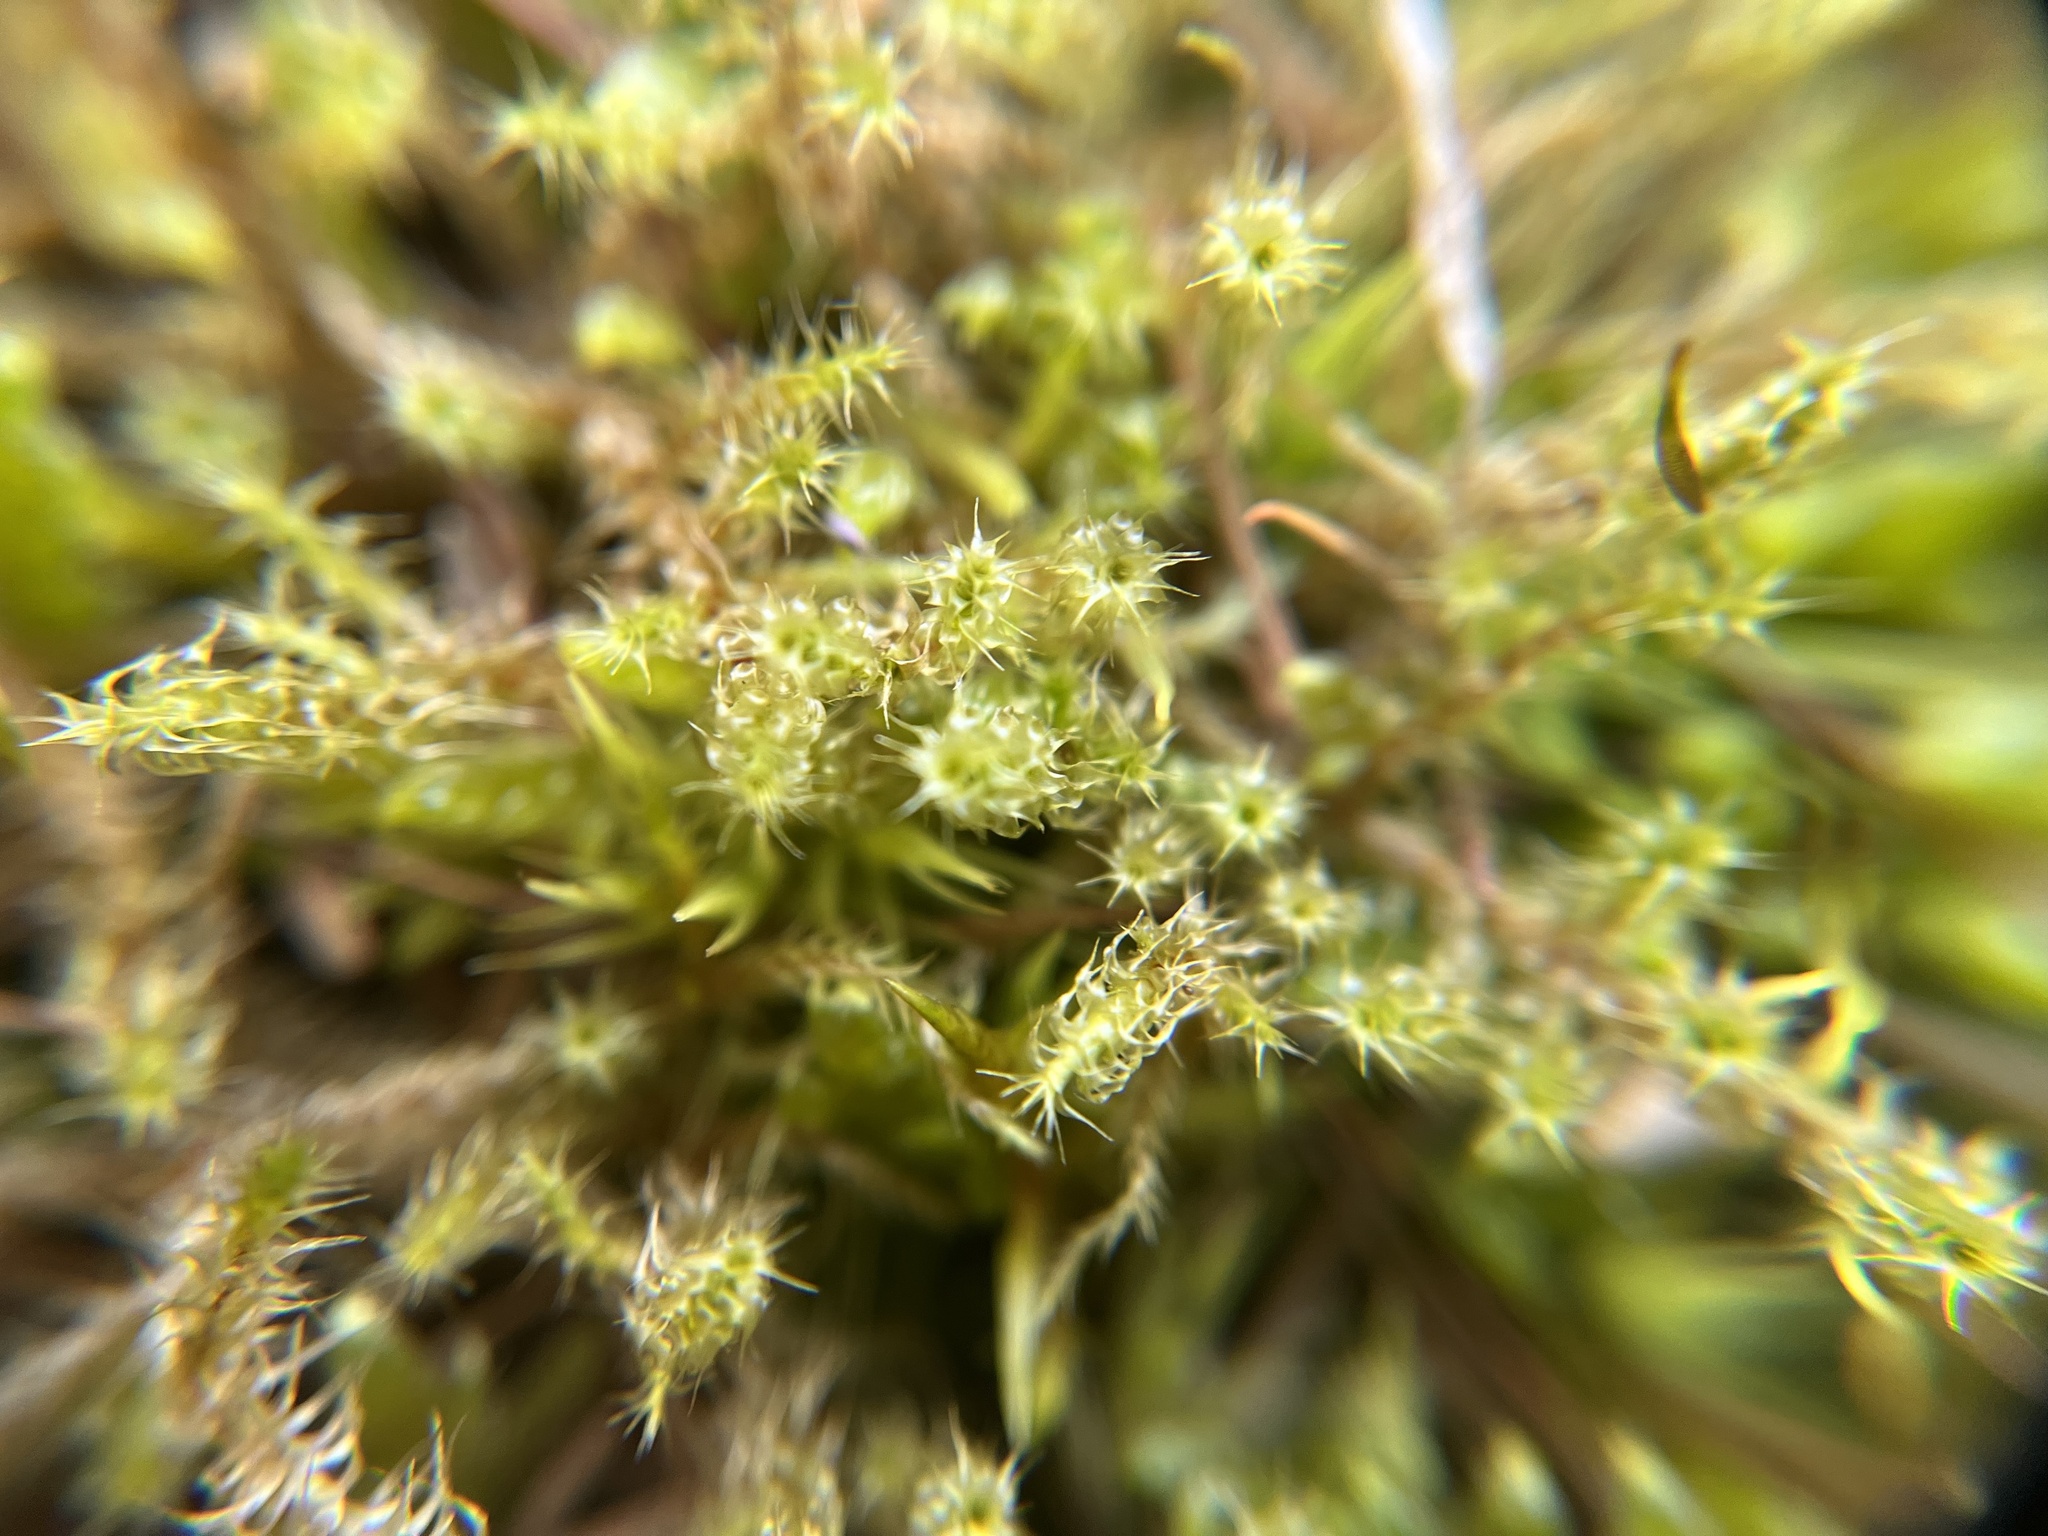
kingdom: Plantae
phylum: Bryophyta
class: Bryopsida
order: Hypnales
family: Hylocomiaceae
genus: Rhytidiadelphus
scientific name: Rhytidiadelphus squarrosus
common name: Springy turf-moss
